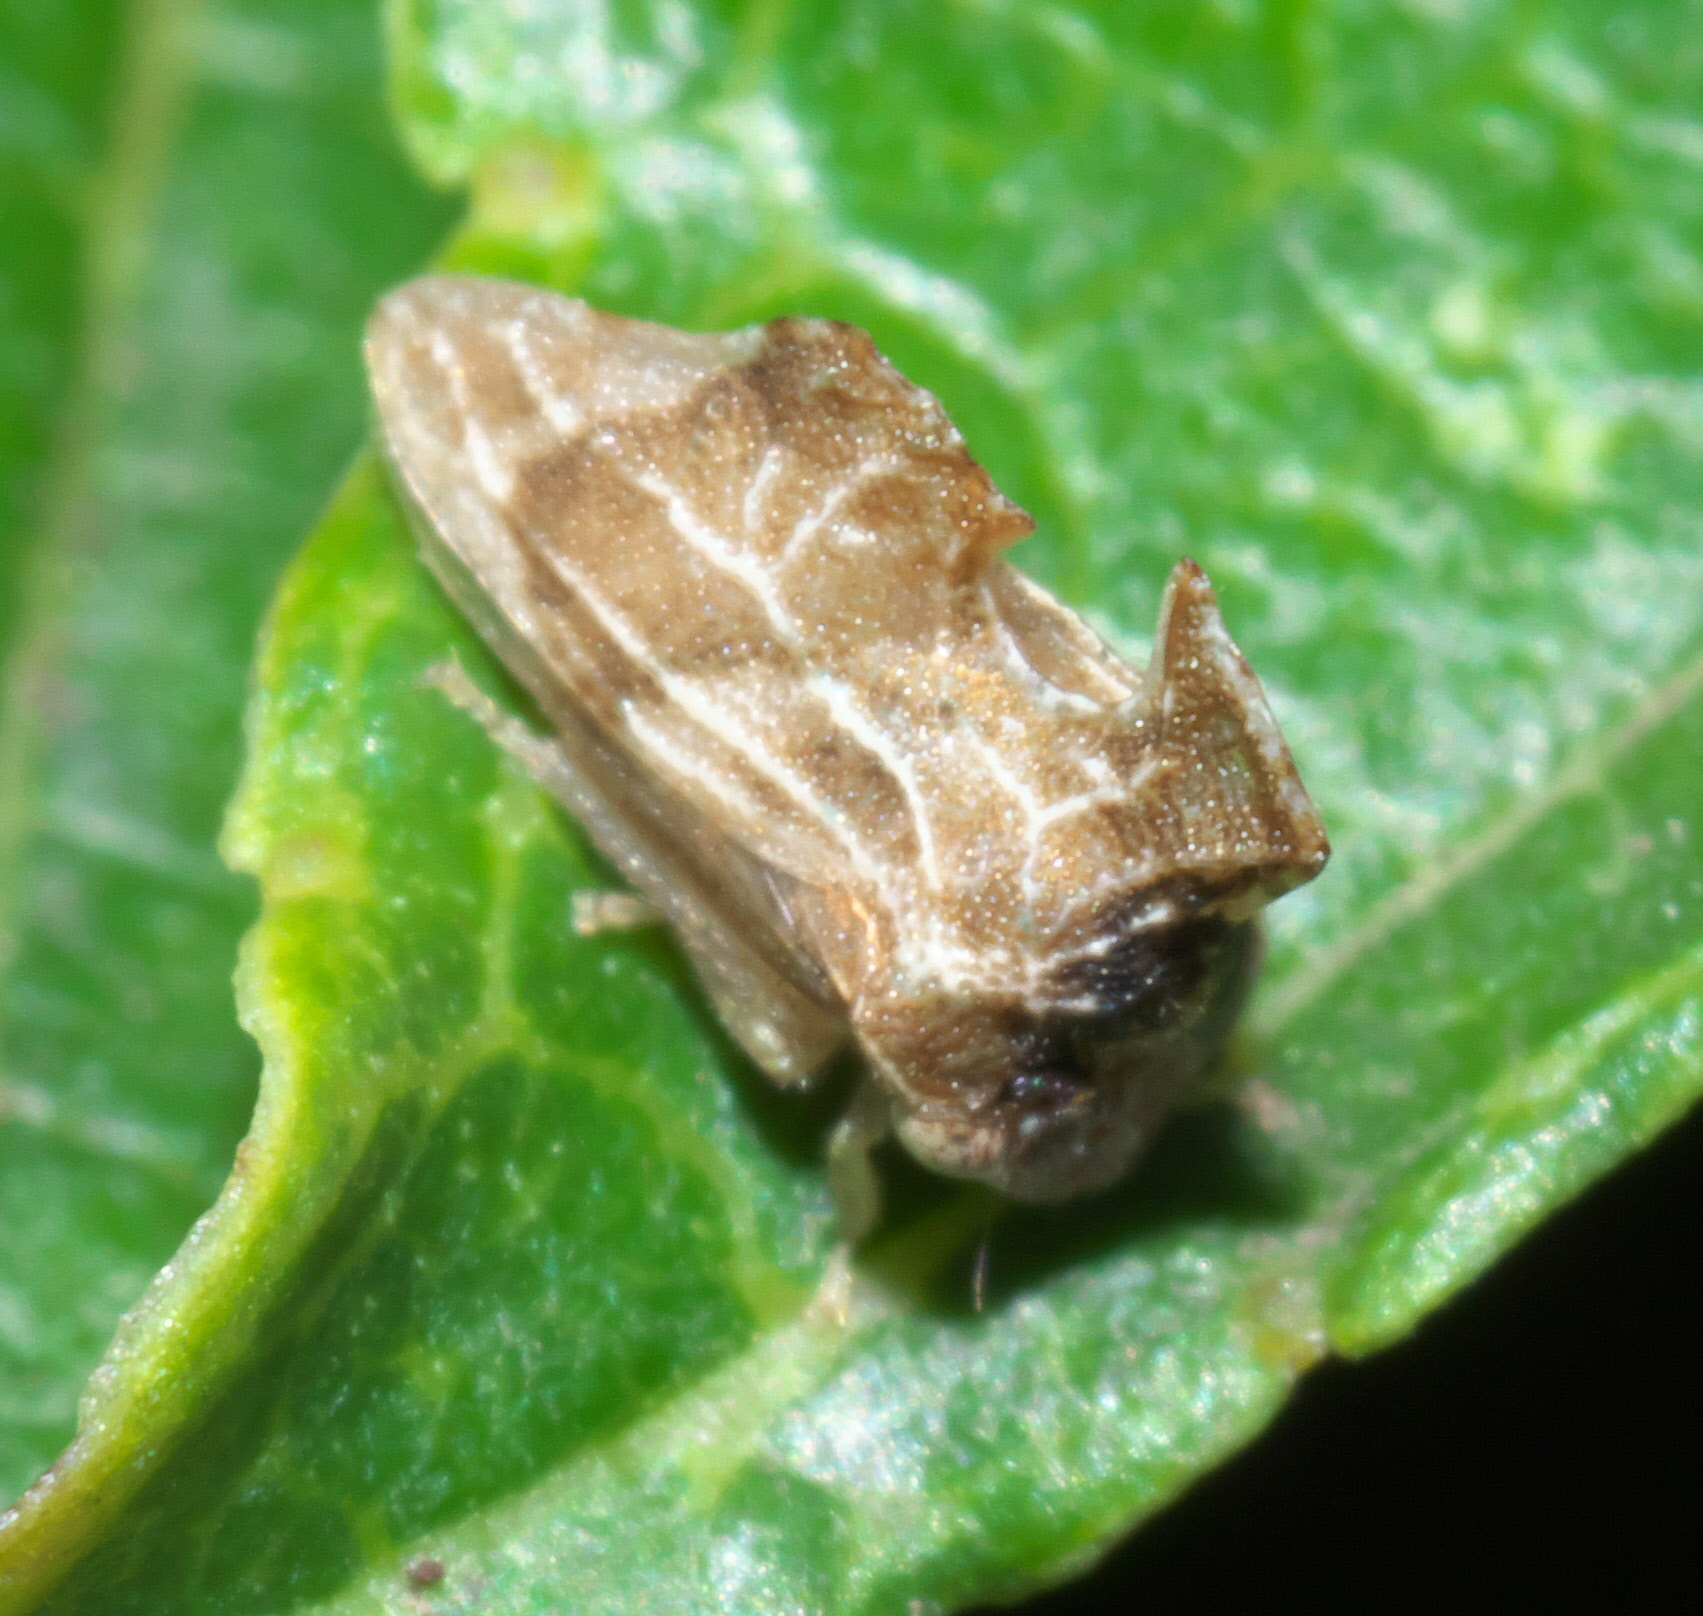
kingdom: Animalia
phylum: Arthropoda
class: Insecta
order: Hemiptera
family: Membracidae
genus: Entylia
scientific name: Entylia carinata
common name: Keeled treehopper
